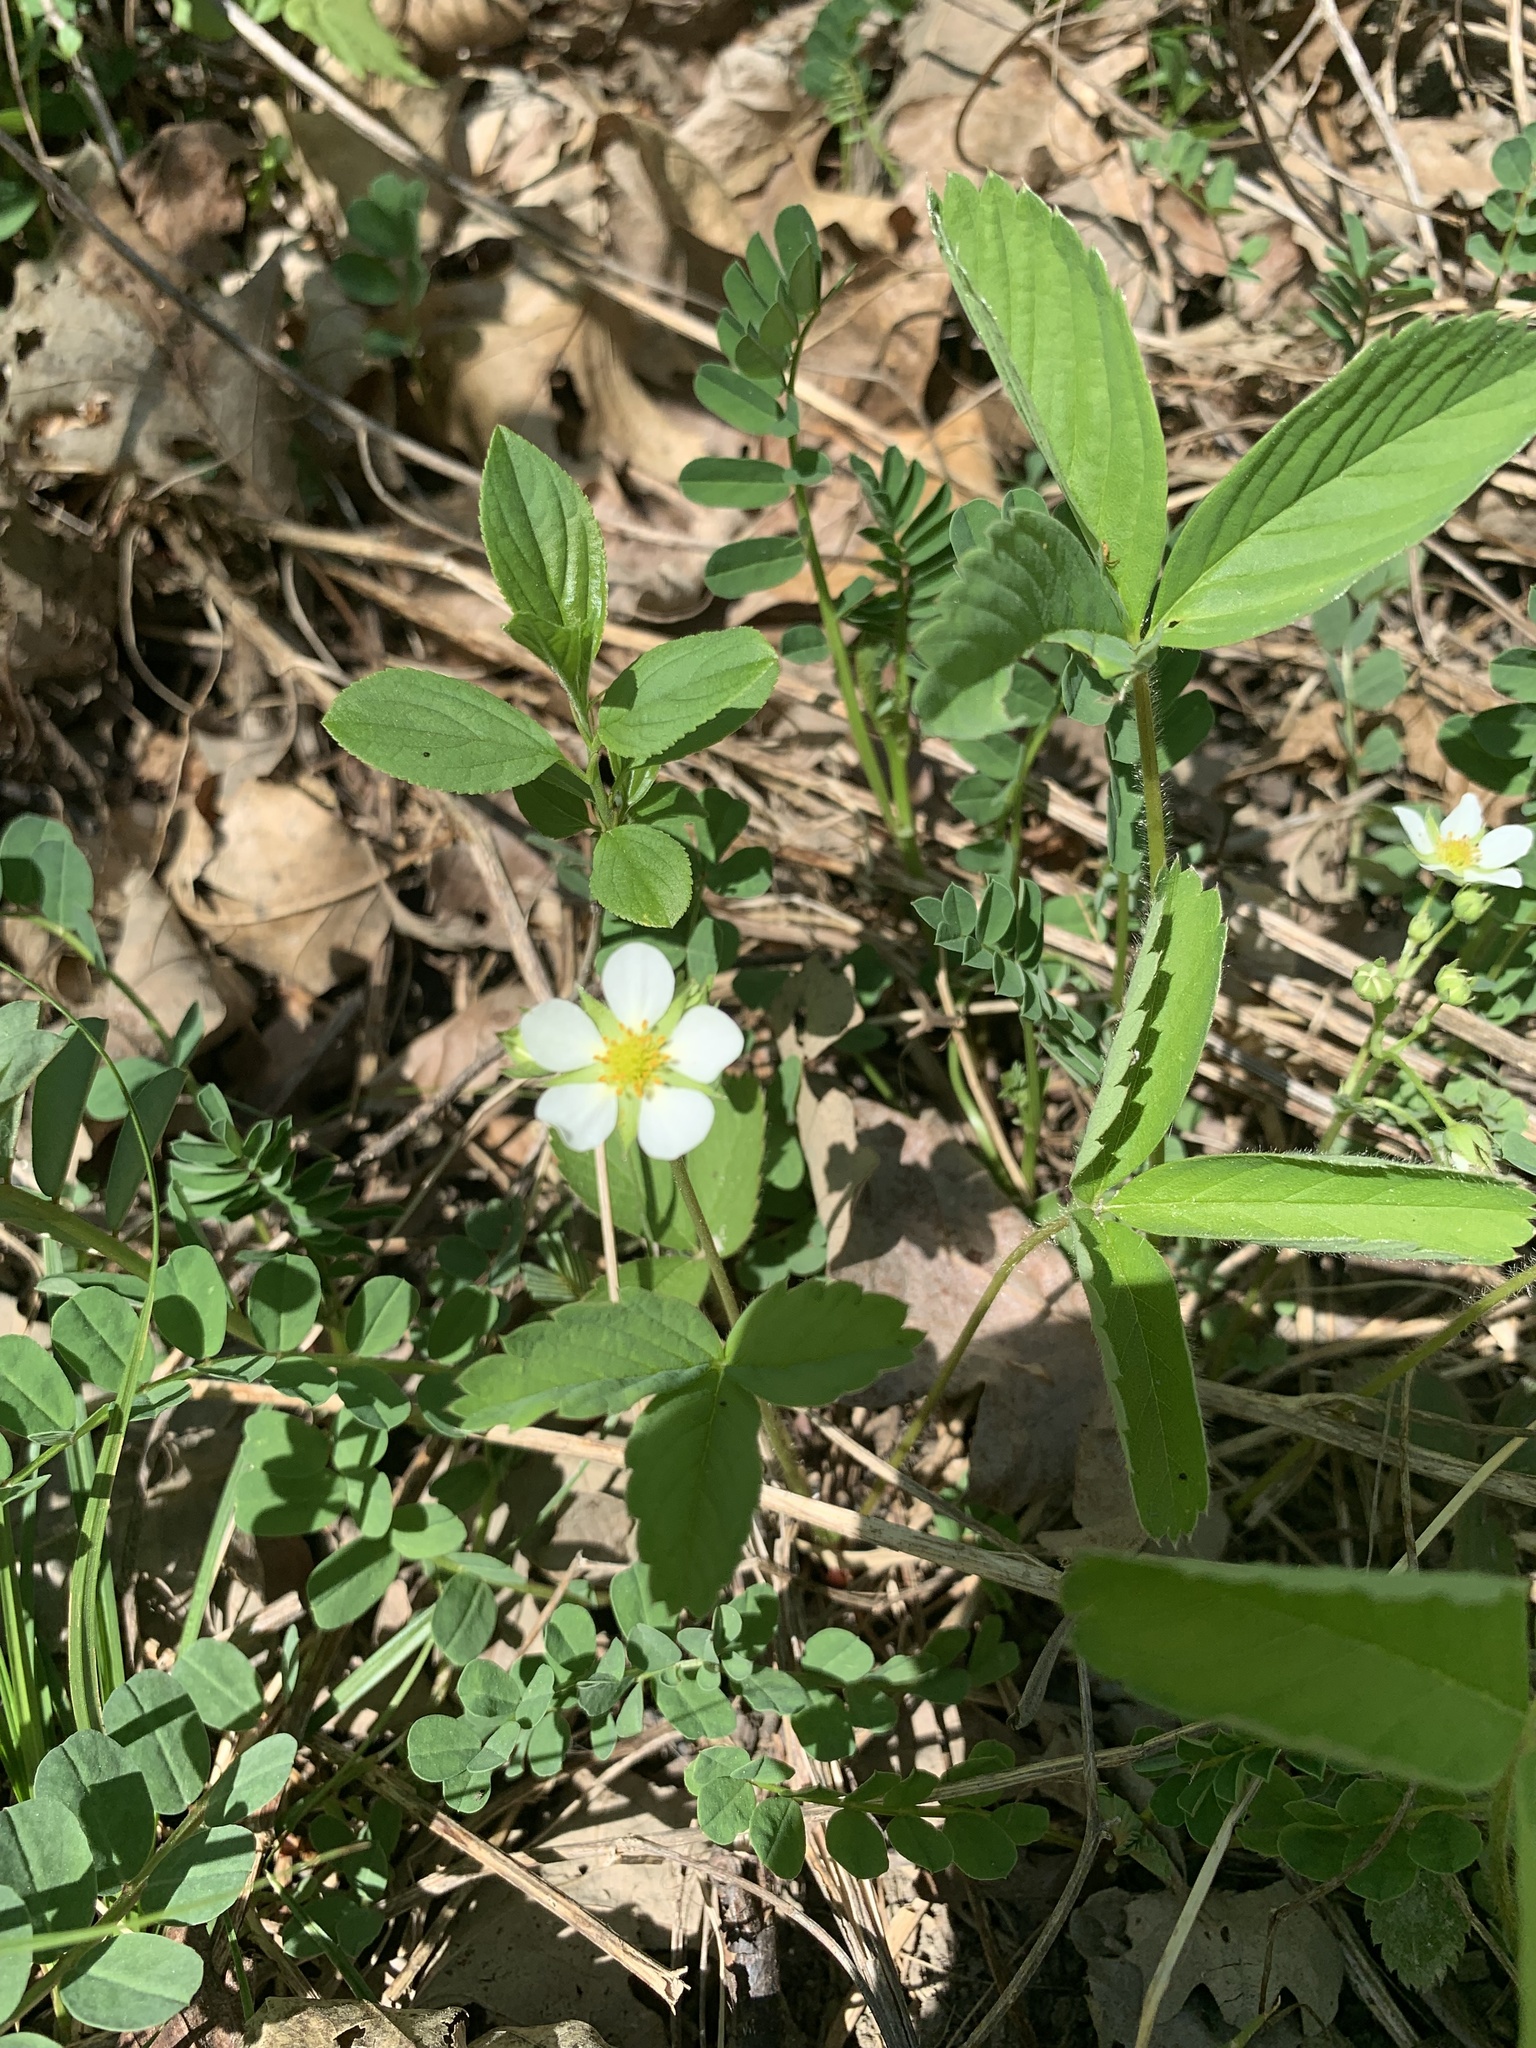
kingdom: Plantae
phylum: Tracheophyta
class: Magnoliopsida
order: Rosales
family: Rosaceae
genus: Fragaria
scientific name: Fragaria virginiana
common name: Thickleaved wild strawberry
